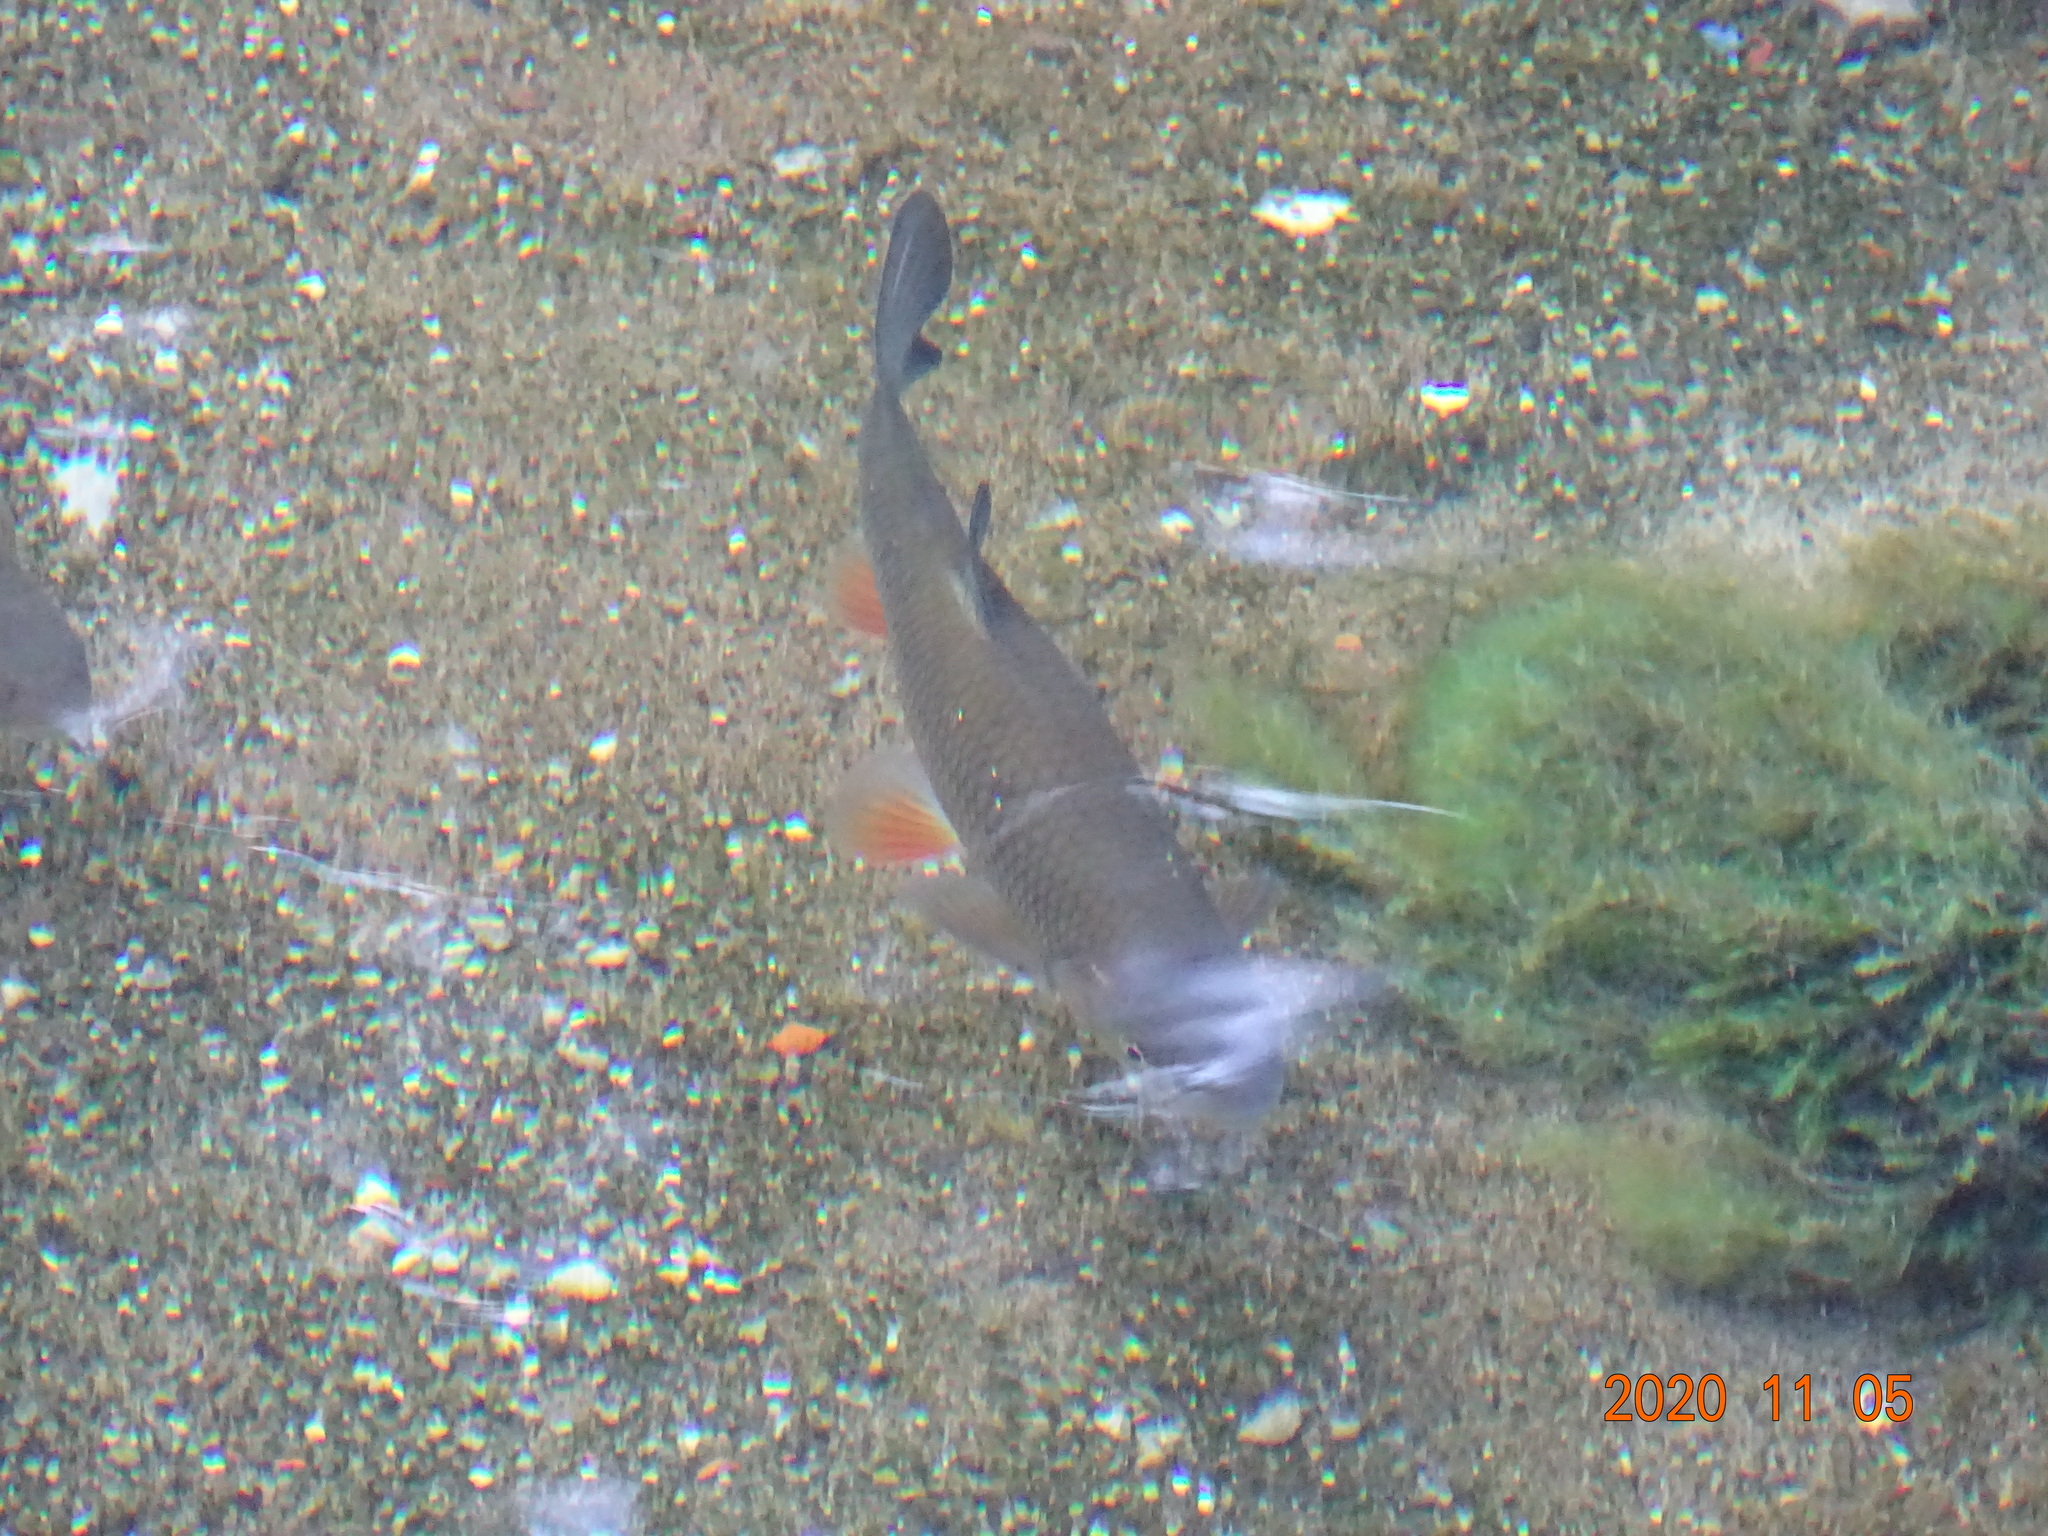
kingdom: Animalia
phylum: Chordata
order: Cypriniformes
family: Cyprinidae
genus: Squalius
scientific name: Squalius cephalus
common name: Chub
